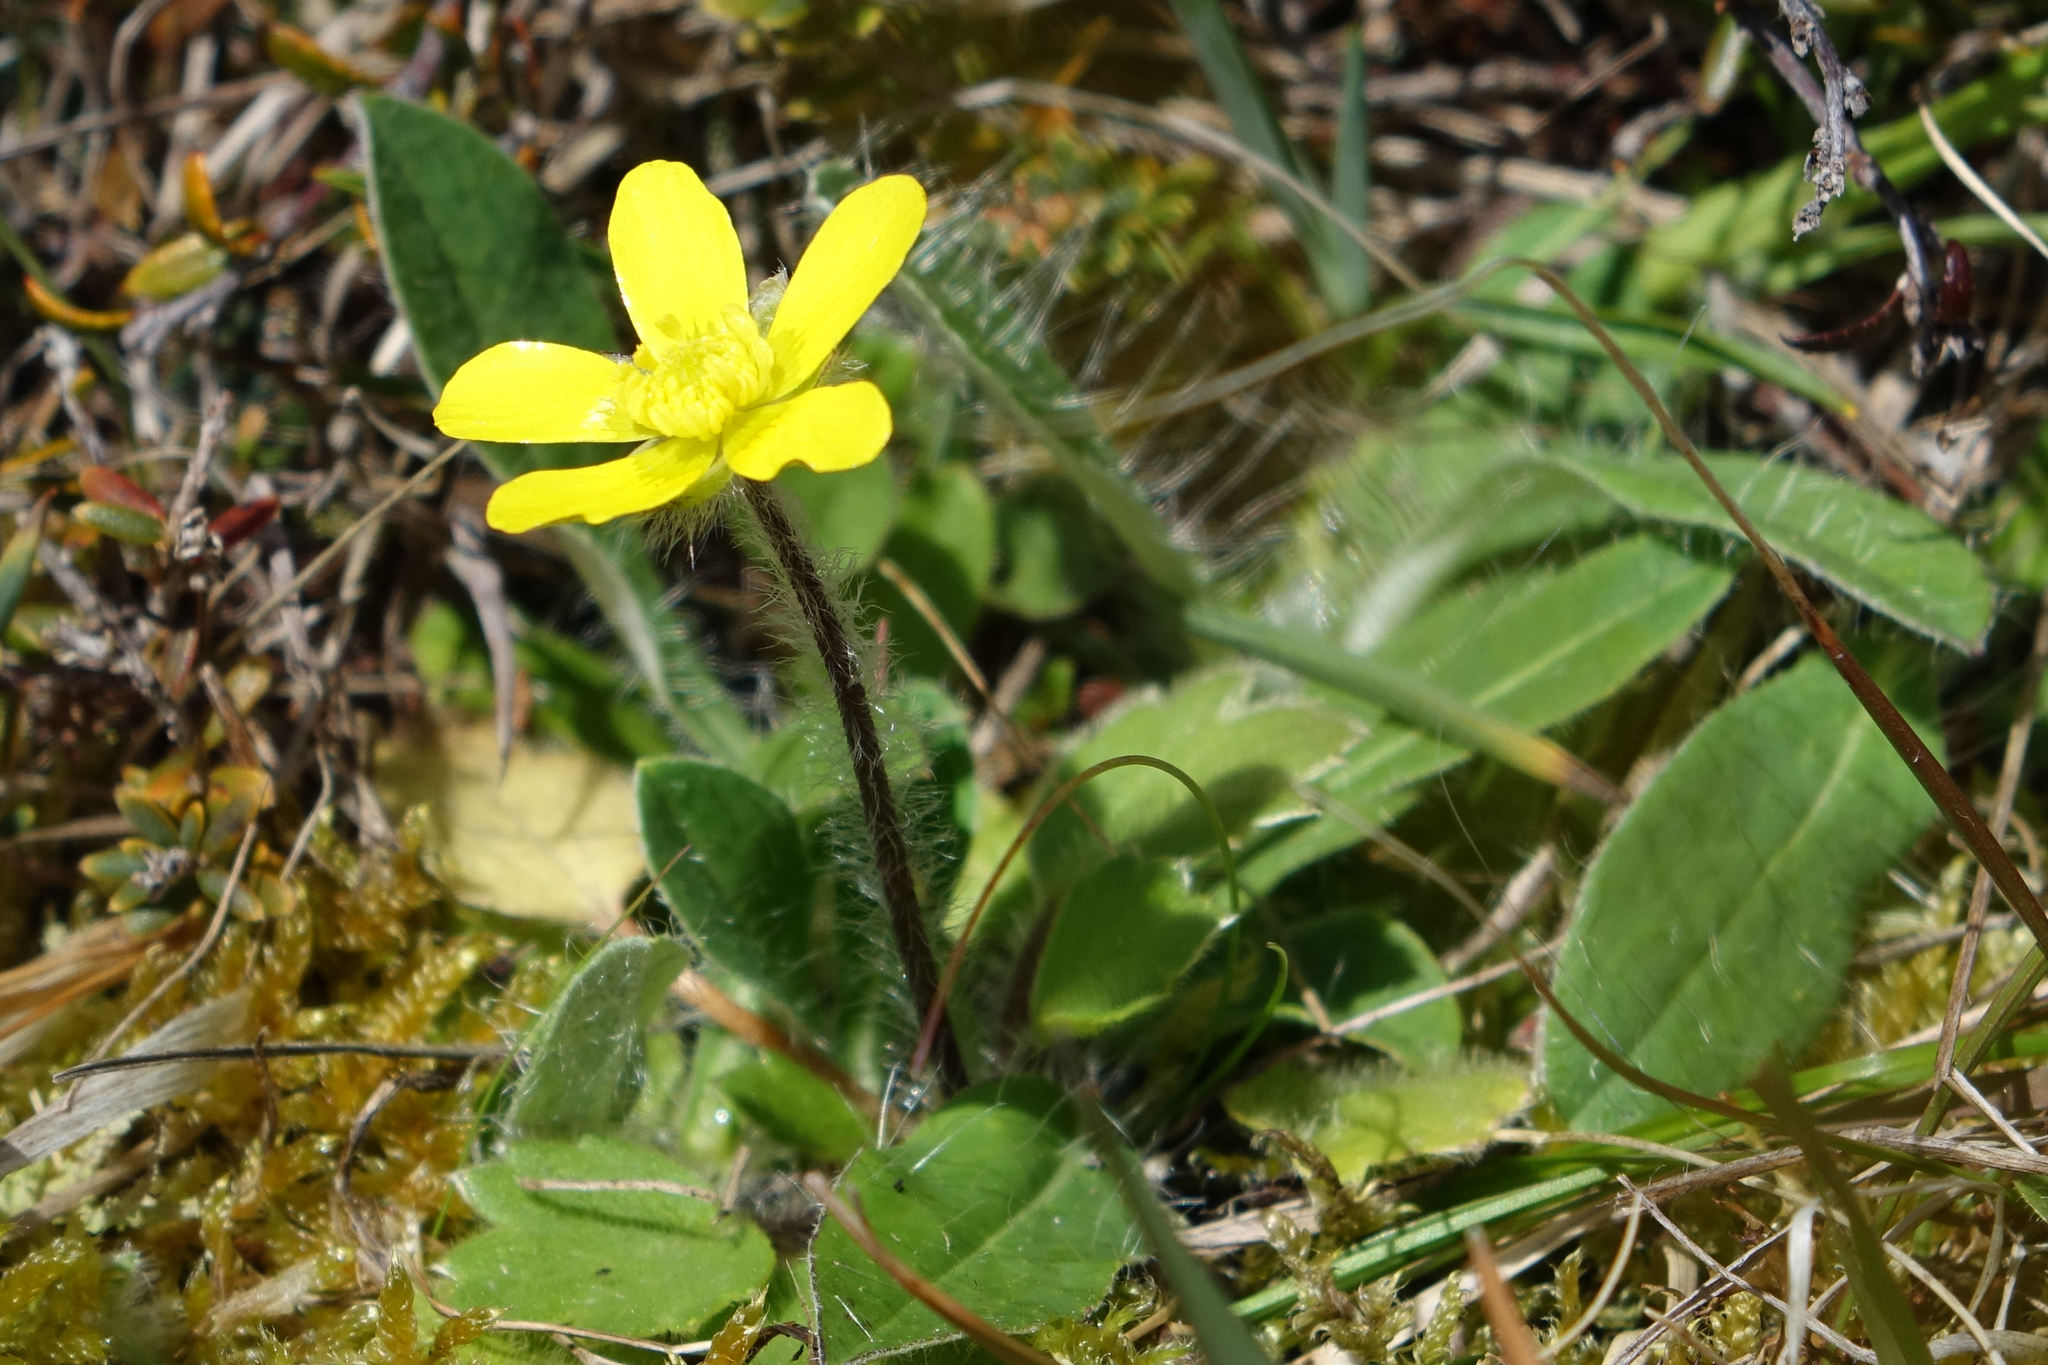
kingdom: Plantae
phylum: Tracheophyta
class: Magnoliopsida
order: Ranunculales
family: Ranunculaceae
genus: Ranunculus
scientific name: Ranunculus multiscapus
